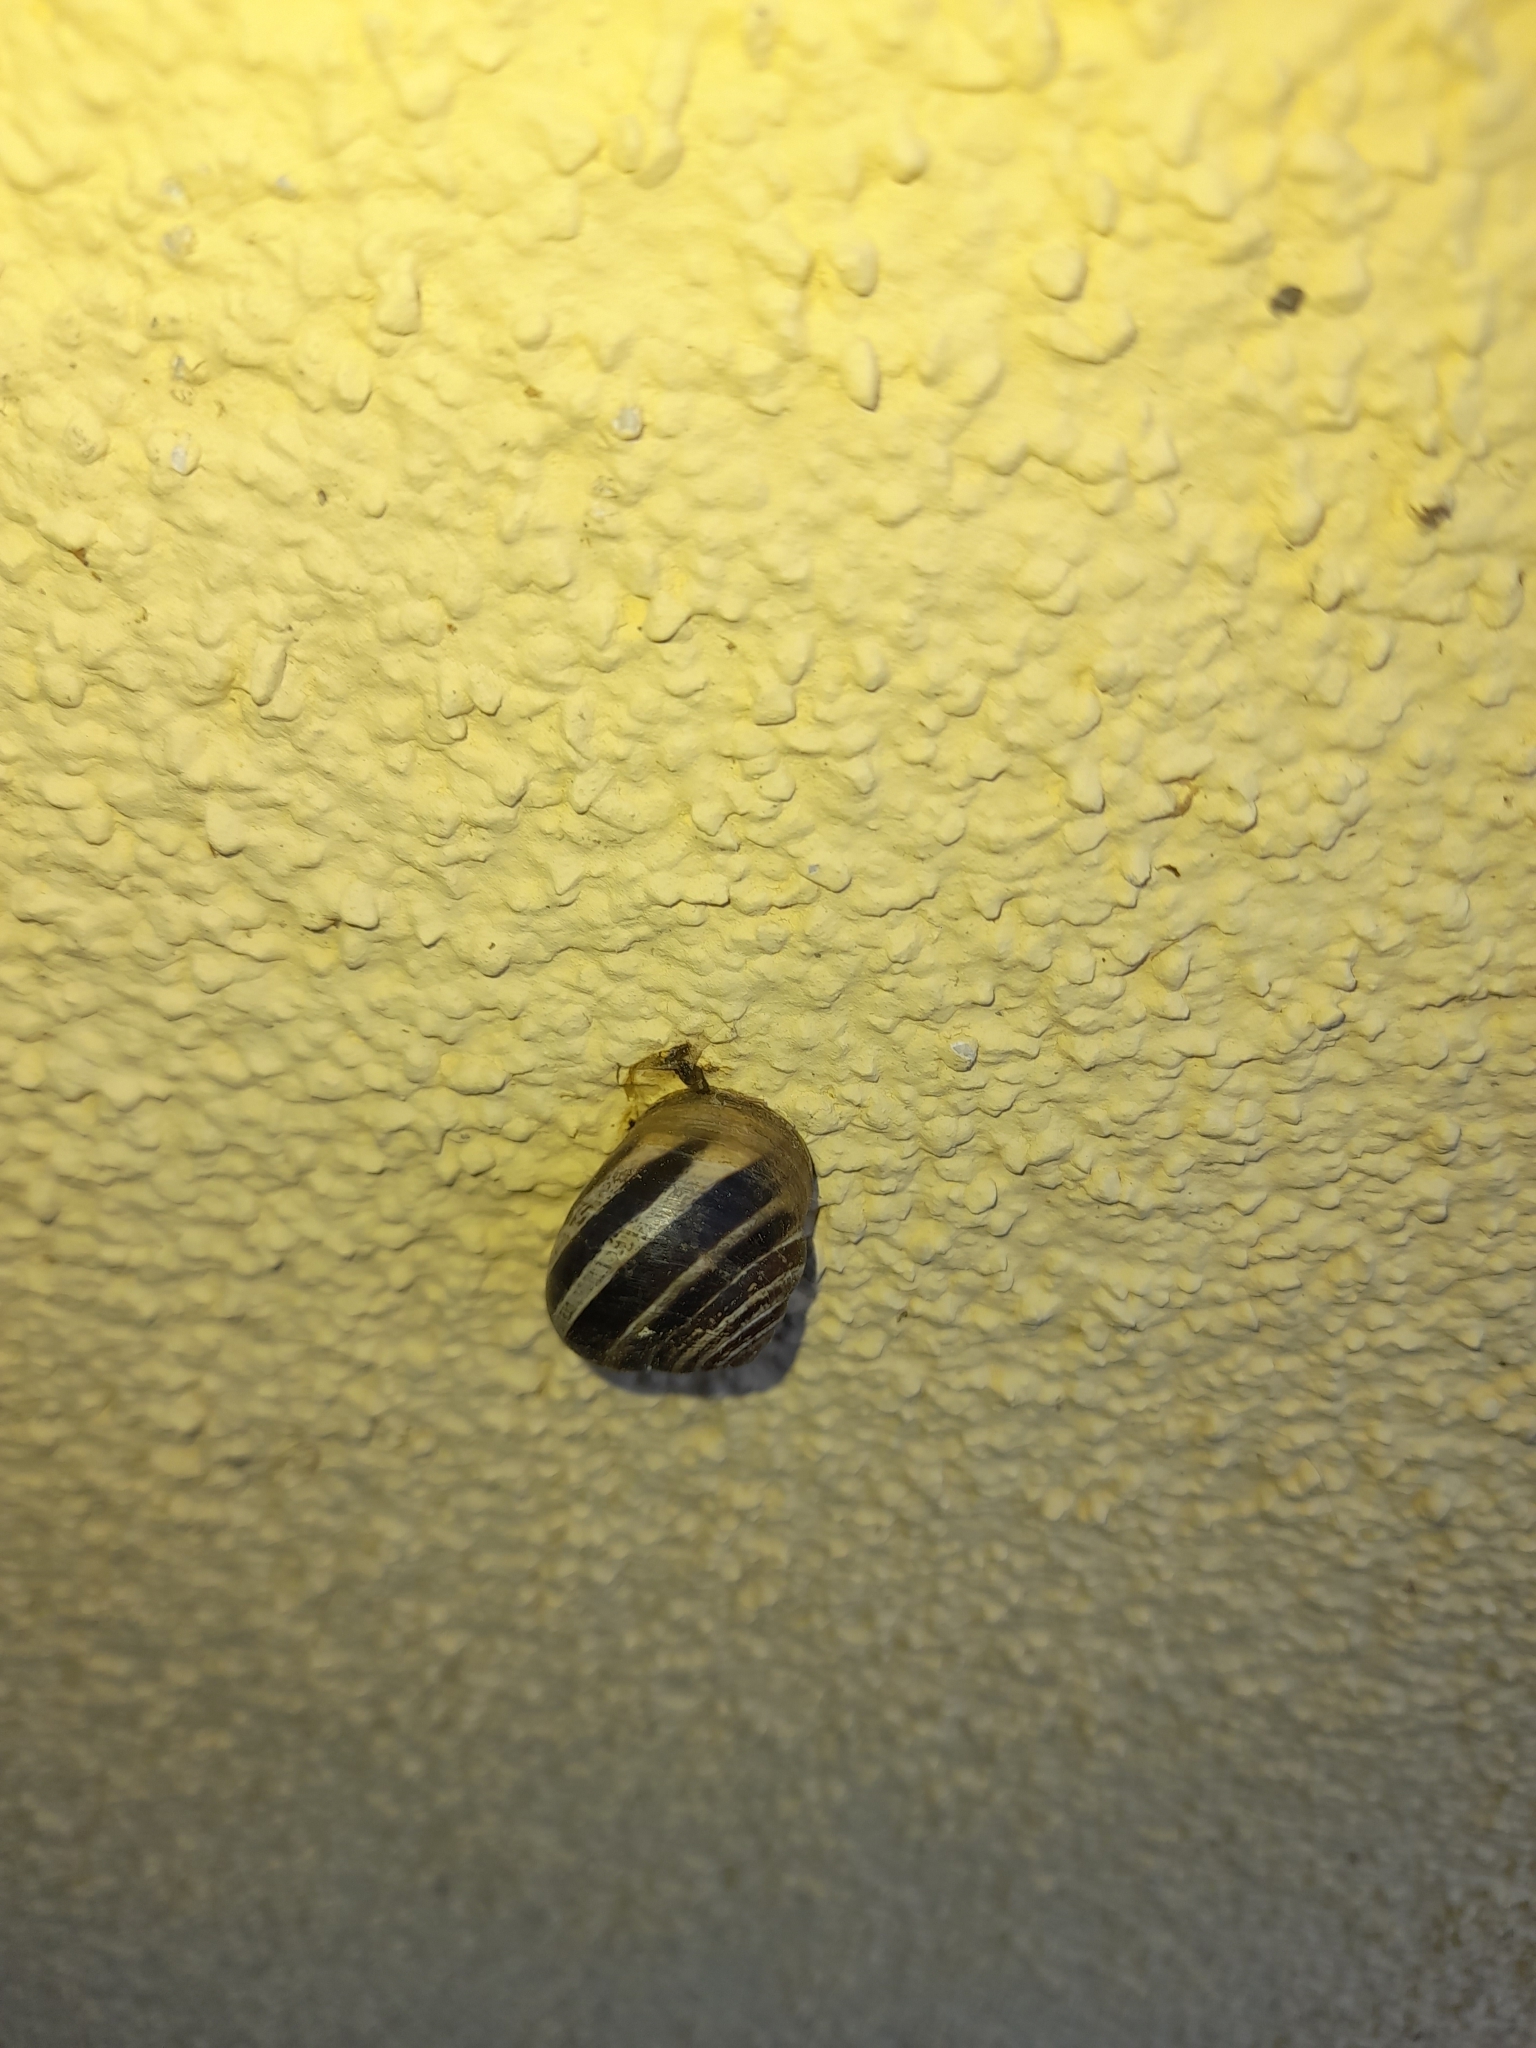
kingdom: Animalia
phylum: Mollusca
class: Gastropoda
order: Stylommatophora
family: Helicidae
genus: Eobania
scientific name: Eobania vermiculata
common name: Chocolateband snail
